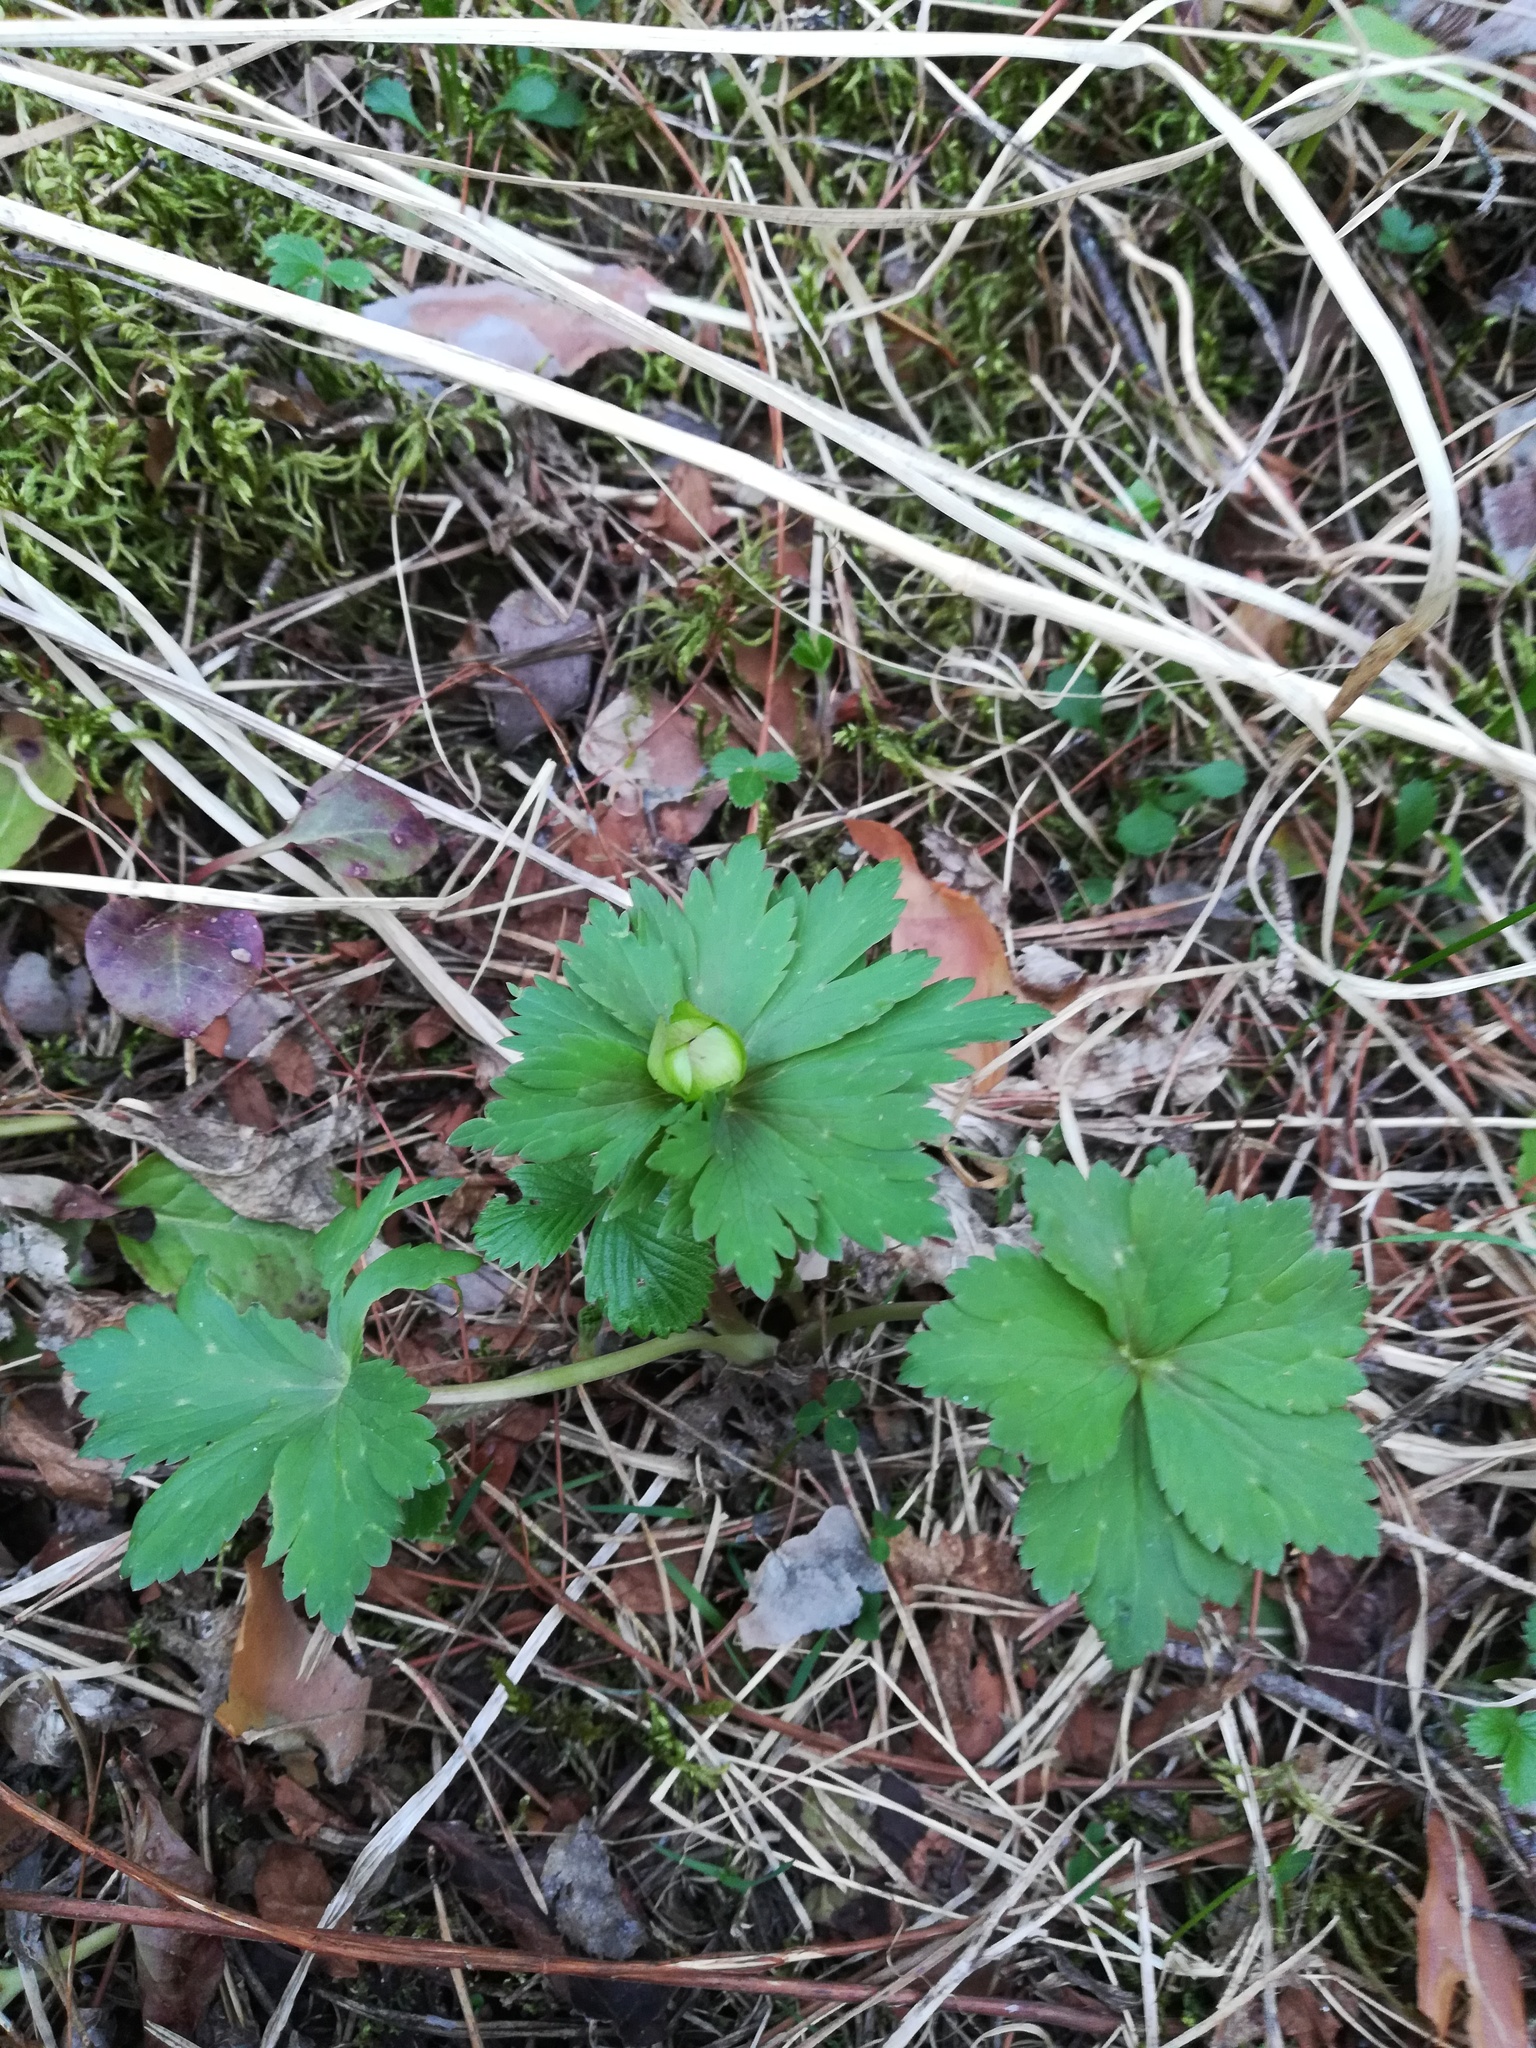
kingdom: Plantae
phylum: Tracheophyta
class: Magnoliopsida
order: Ranunculales
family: Ranunculaceae
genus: Trollius
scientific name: Trollius europaeus
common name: European globeflower
